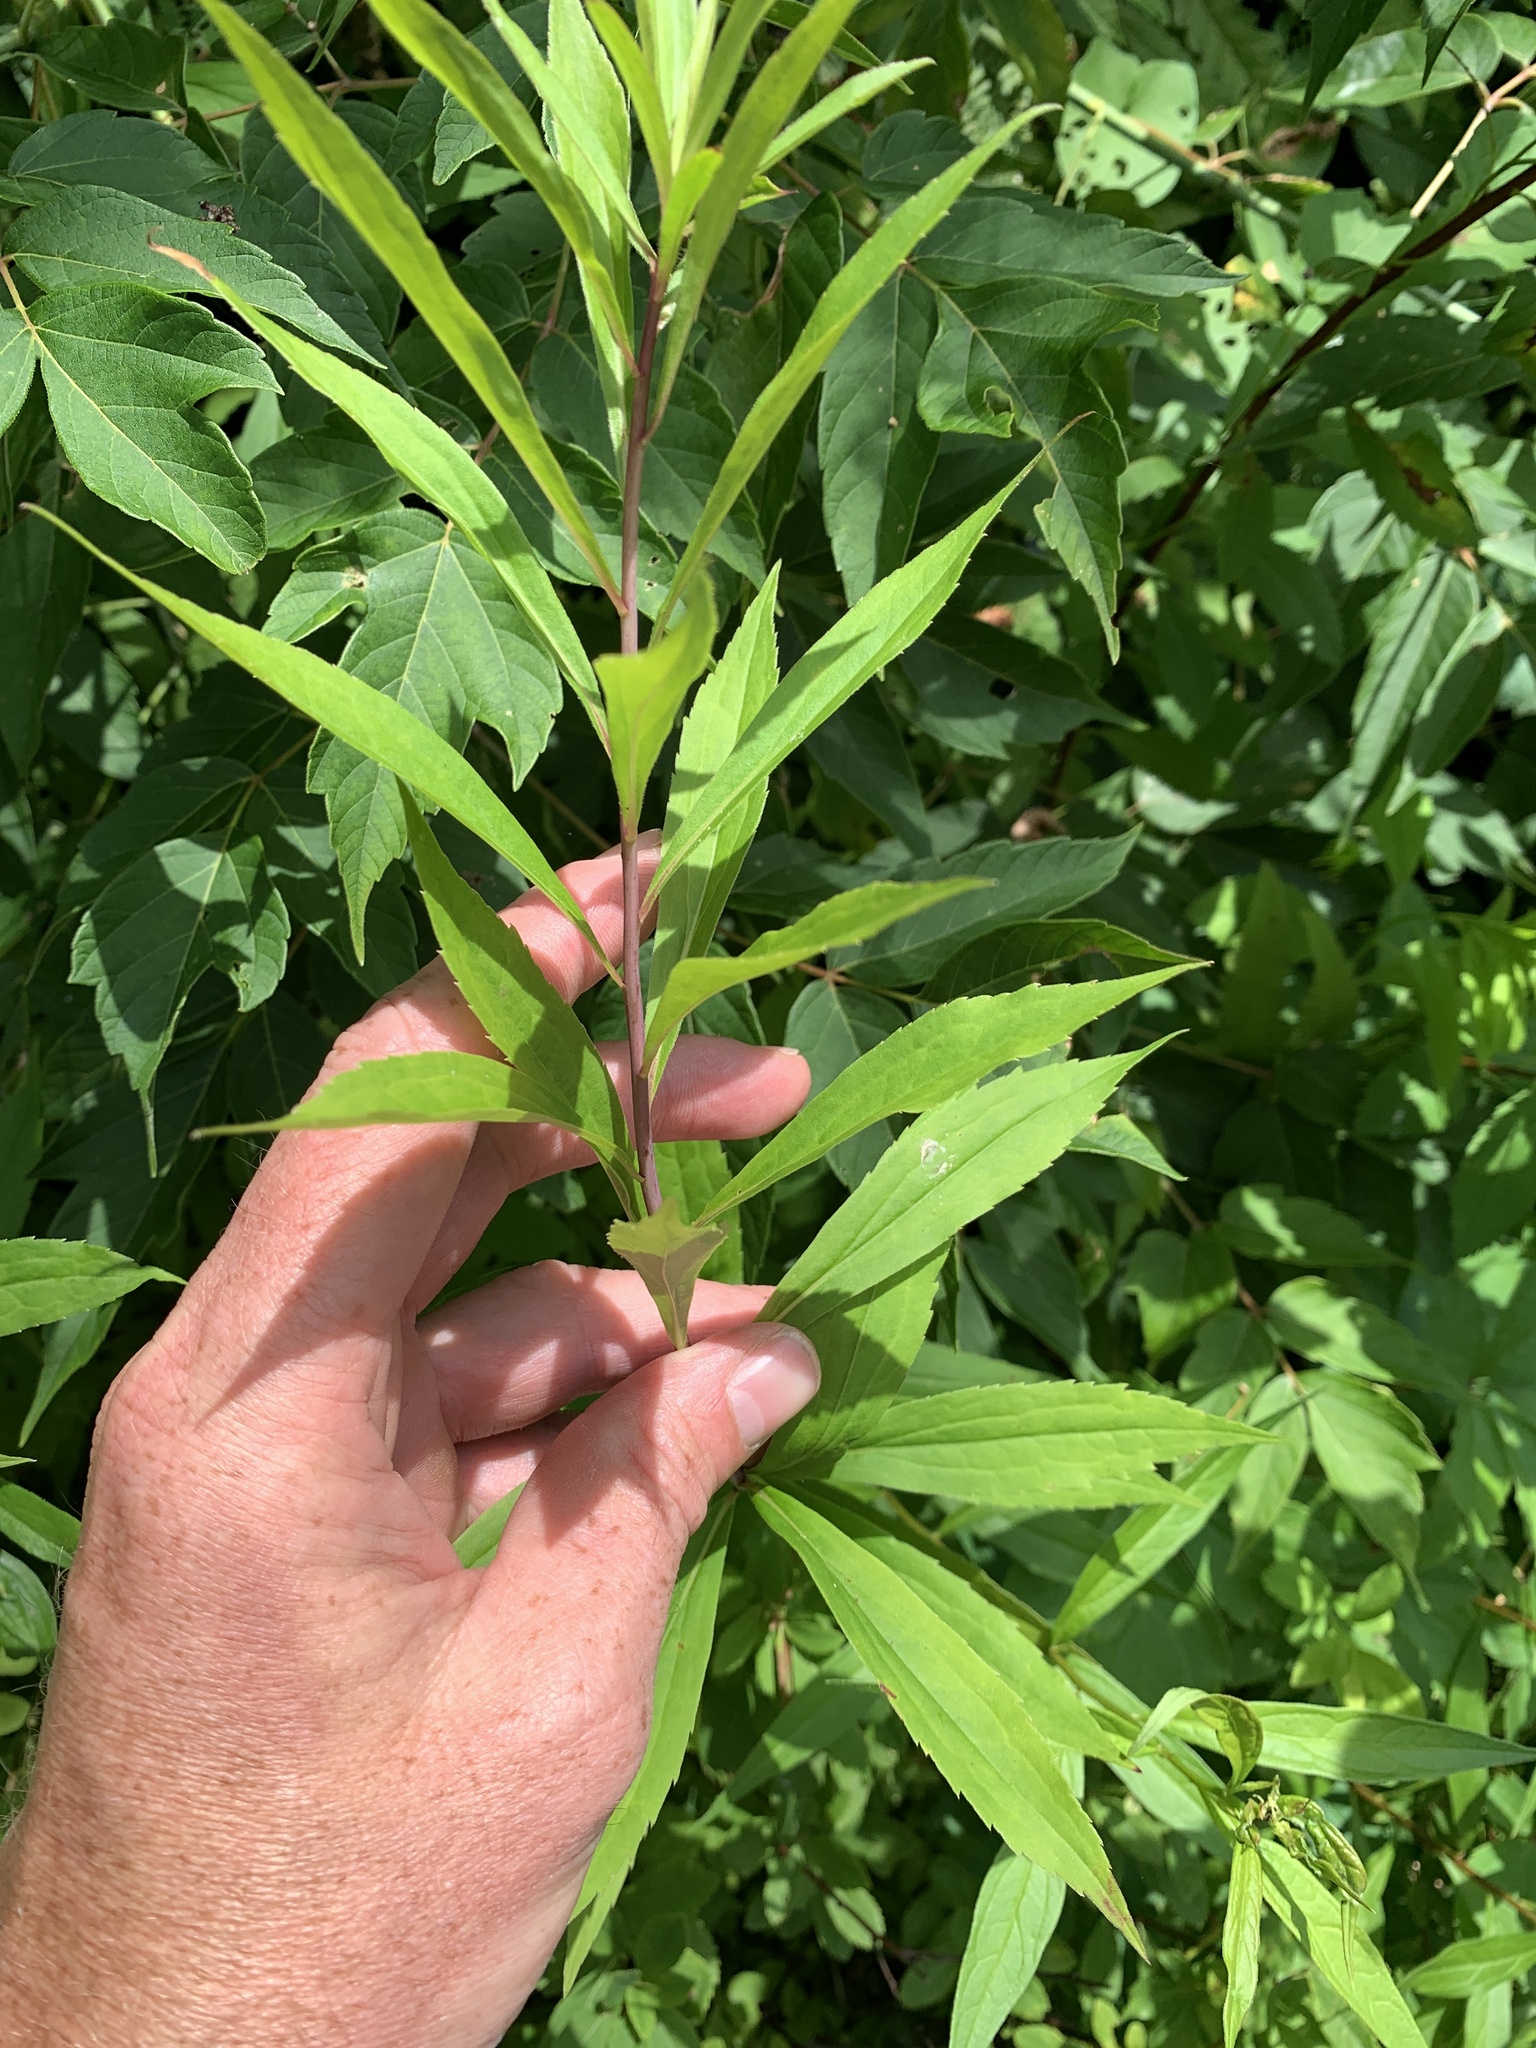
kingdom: Plantae
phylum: Tracheophyta
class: Magnoliopsida
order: Asterales
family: Asteraceae
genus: Solidago
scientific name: Solidago gigantea
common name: Giant goldenrod
